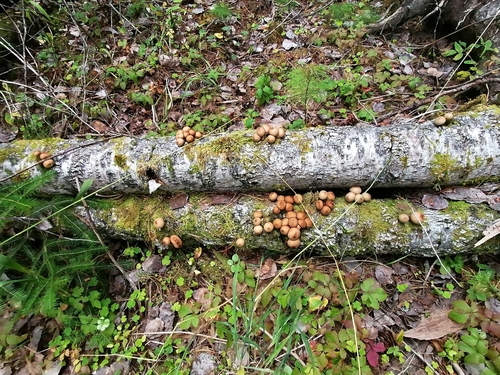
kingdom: Fungi
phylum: Basidiomycota
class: Agaricomycetes
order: Agaricales
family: Lycoperdaceae
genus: Apioperdon
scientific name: Apioperdon pyriforme
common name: Pear-shaped puffball
